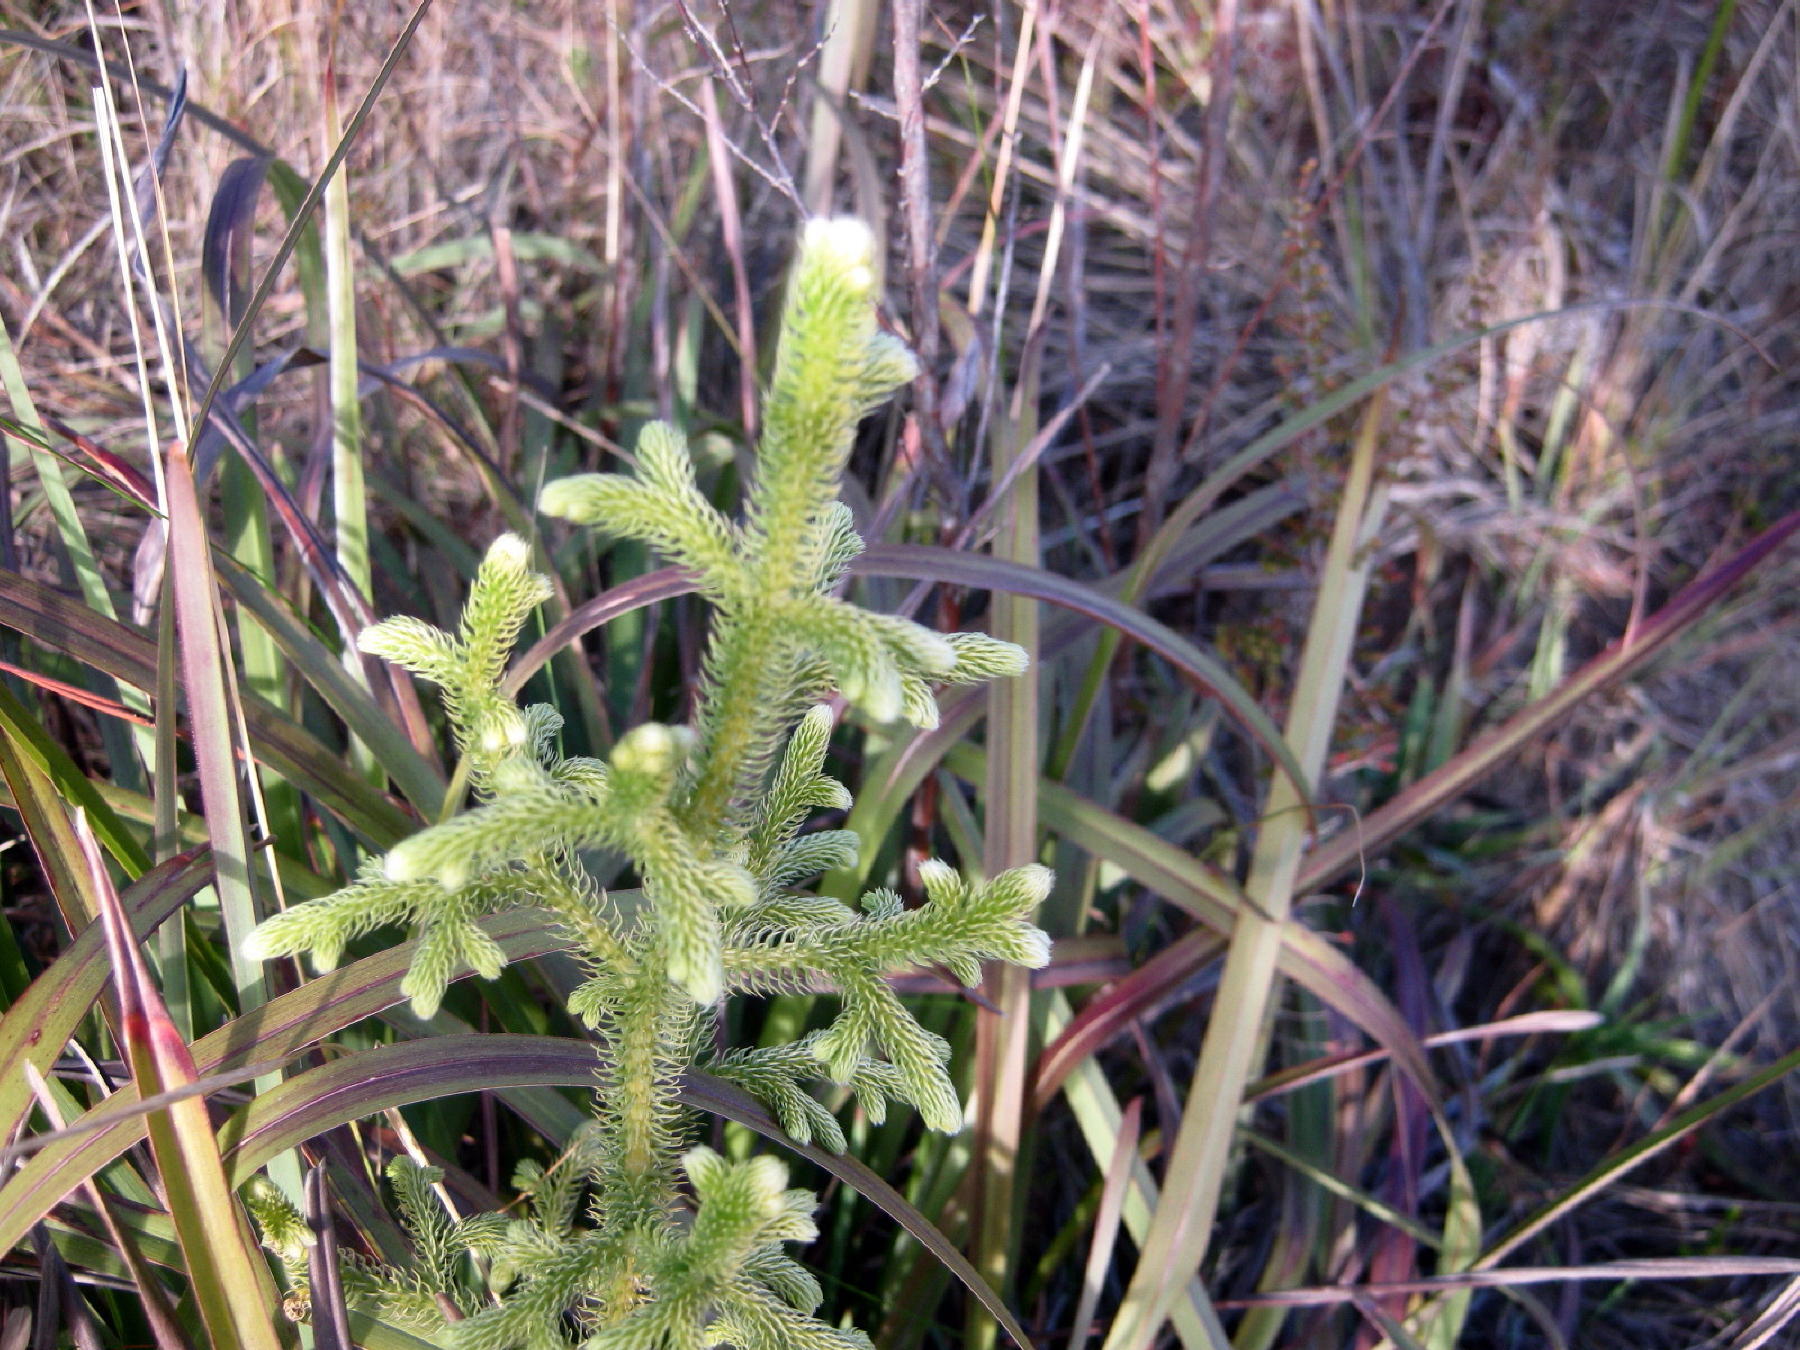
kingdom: Plantae
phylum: Tracheophyta
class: Lycopodiopsida
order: Lycopodiales
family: Lycopodiaceae
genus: Palhinhaea
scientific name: Palhinhaea cernua
